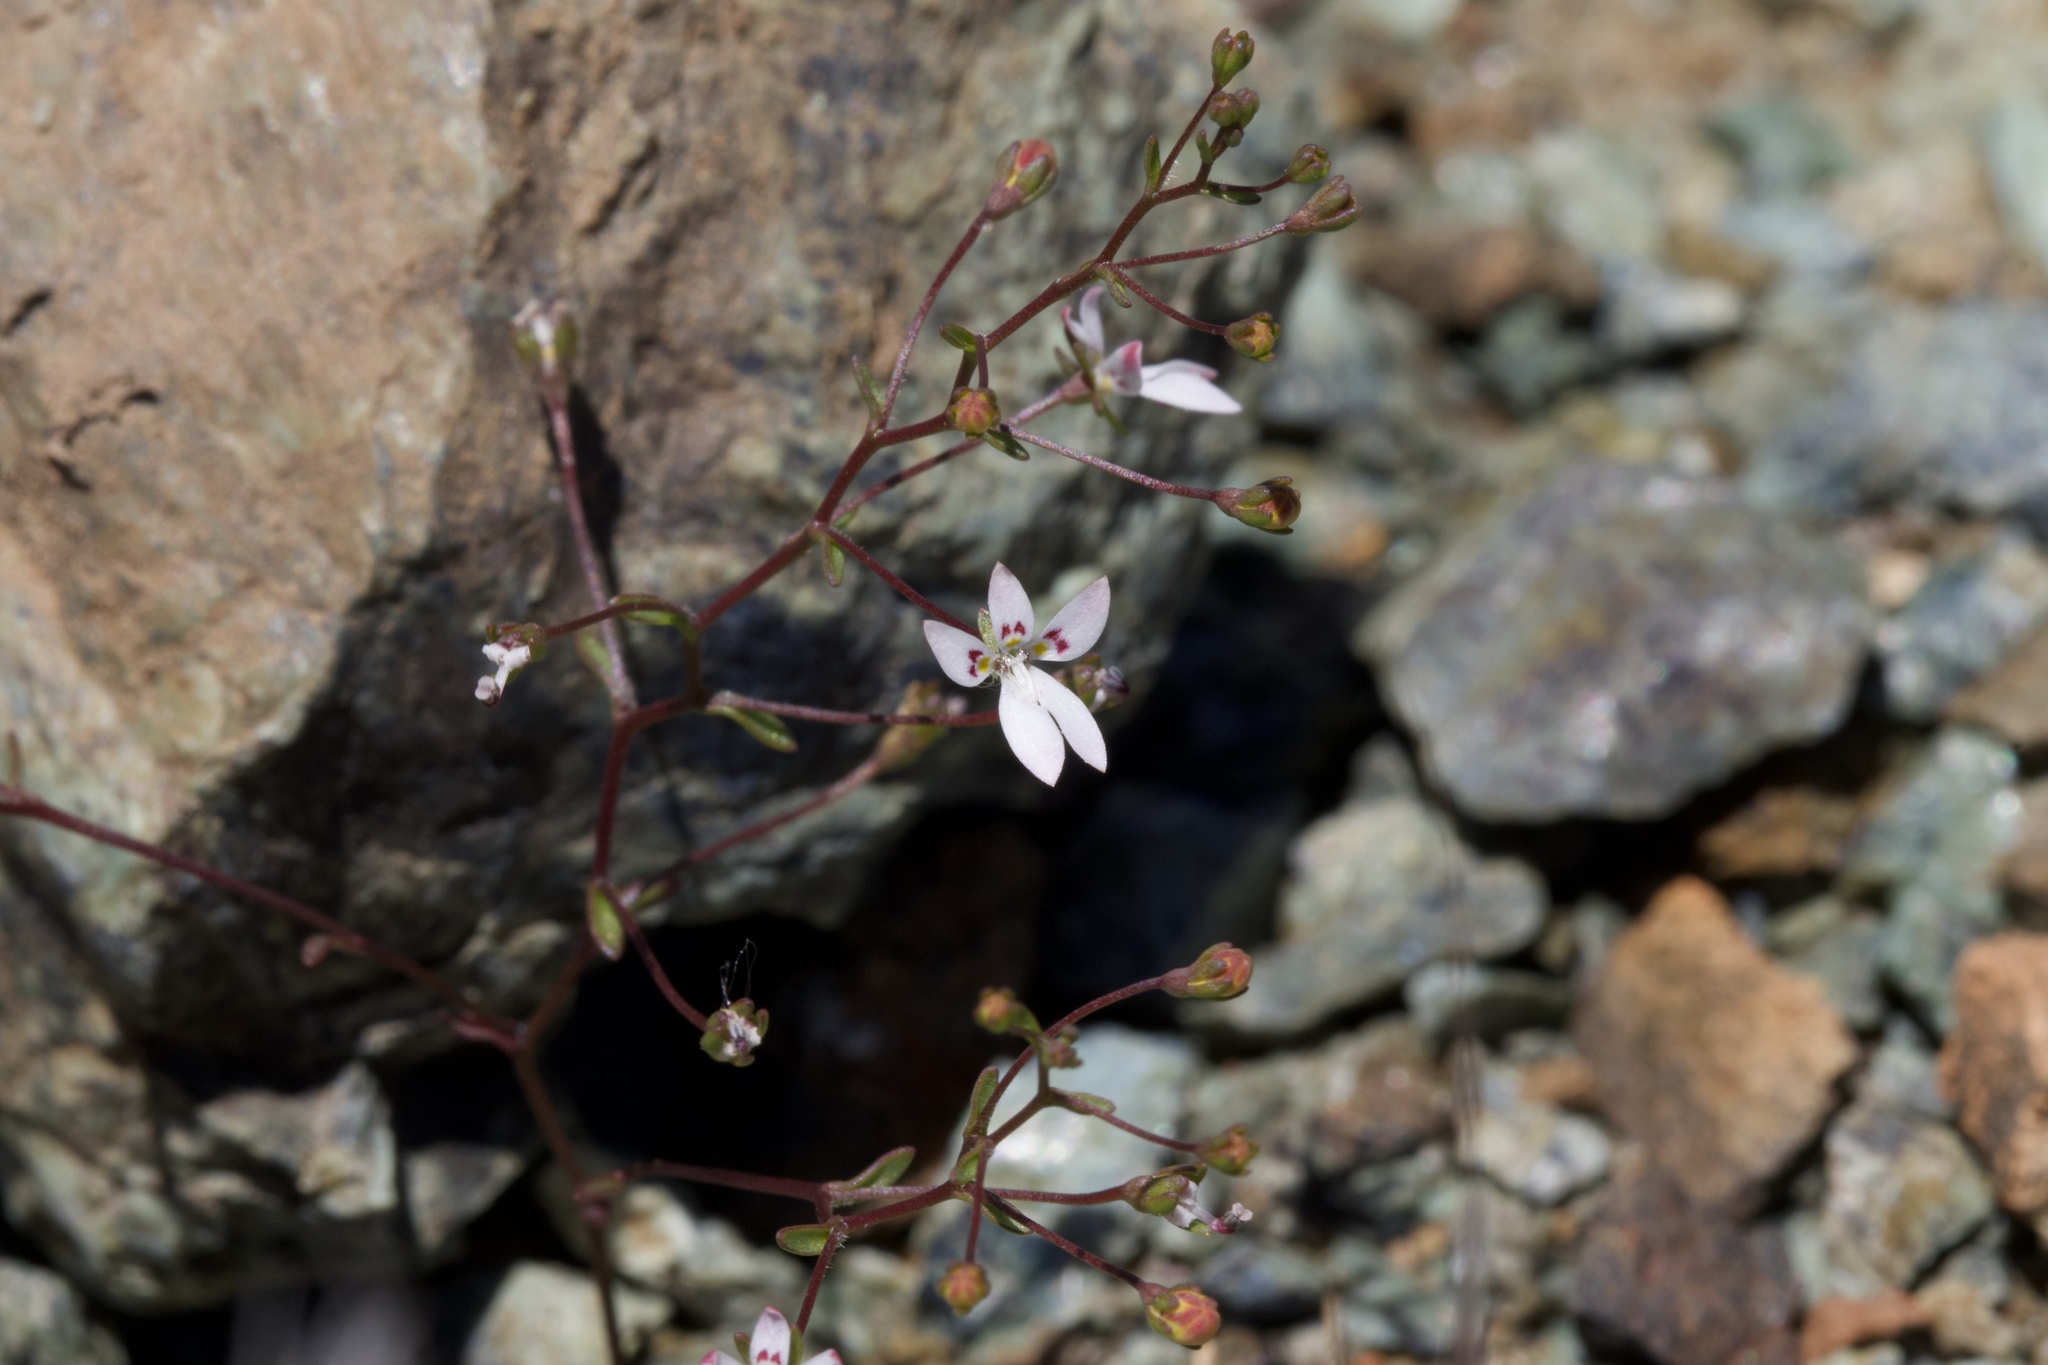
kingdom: Plantae
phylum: Tracheophyta
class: Magnoliopsida
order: Asterales
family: Campanulaceae
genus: Nemacladus
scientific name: Nemacladus montanus
